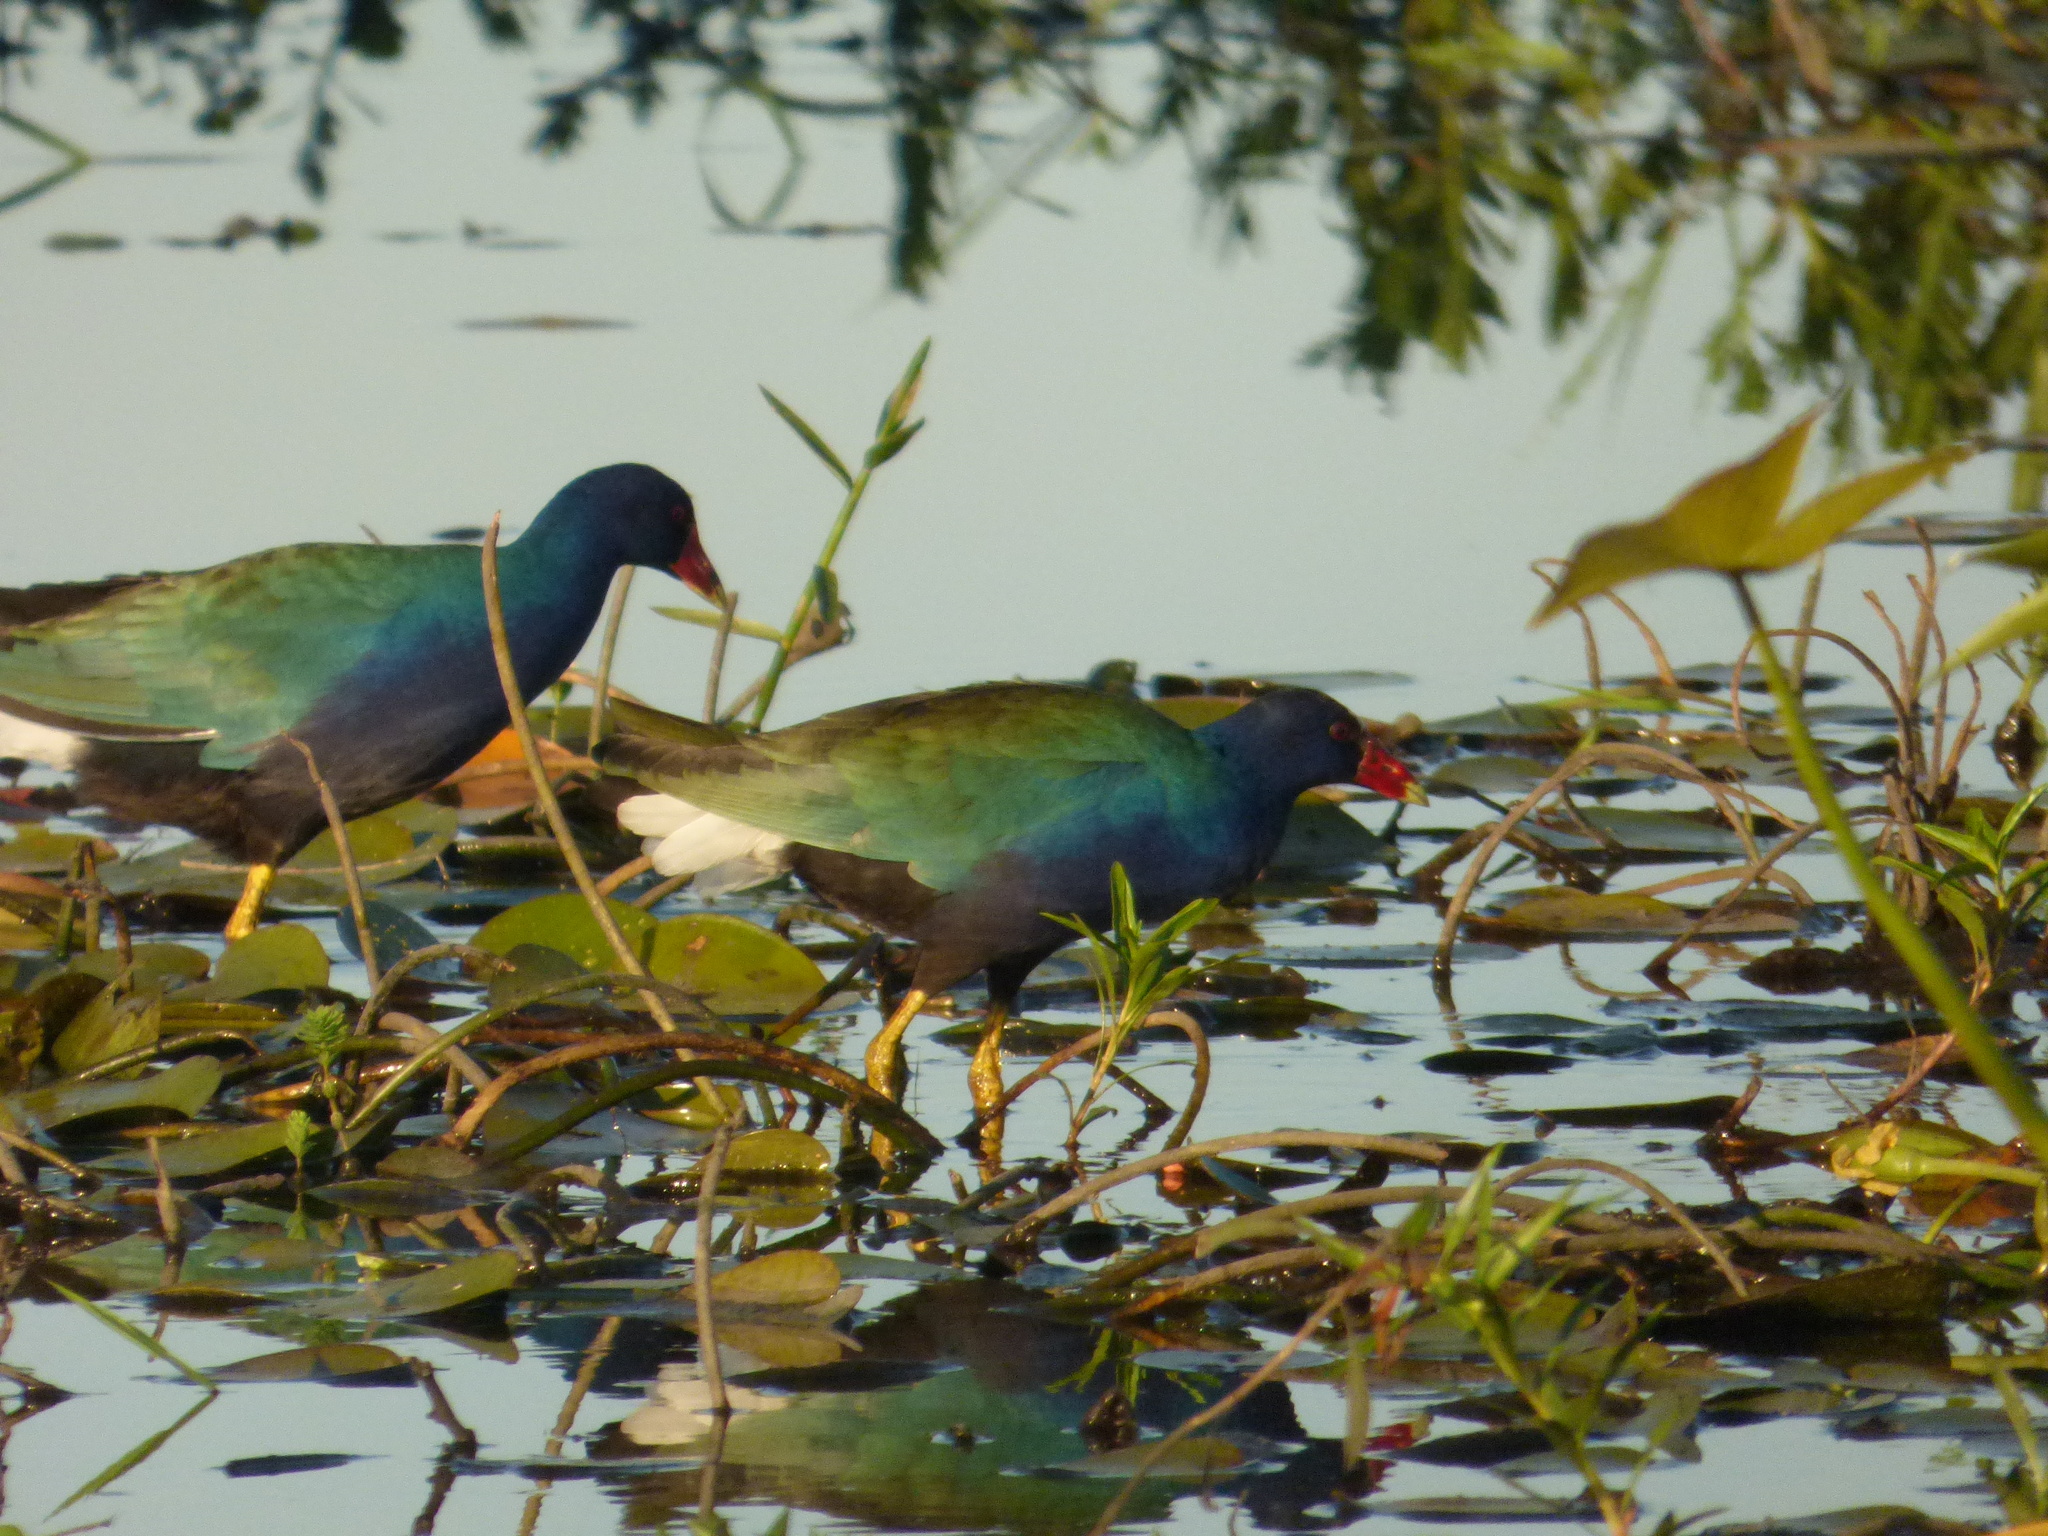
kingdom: Animalia
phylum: Chordata
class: Aves
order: Gruiformes
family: Rallidae
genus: Porphyrio
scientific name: Porphyrio martinica
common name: Purple gallinule
